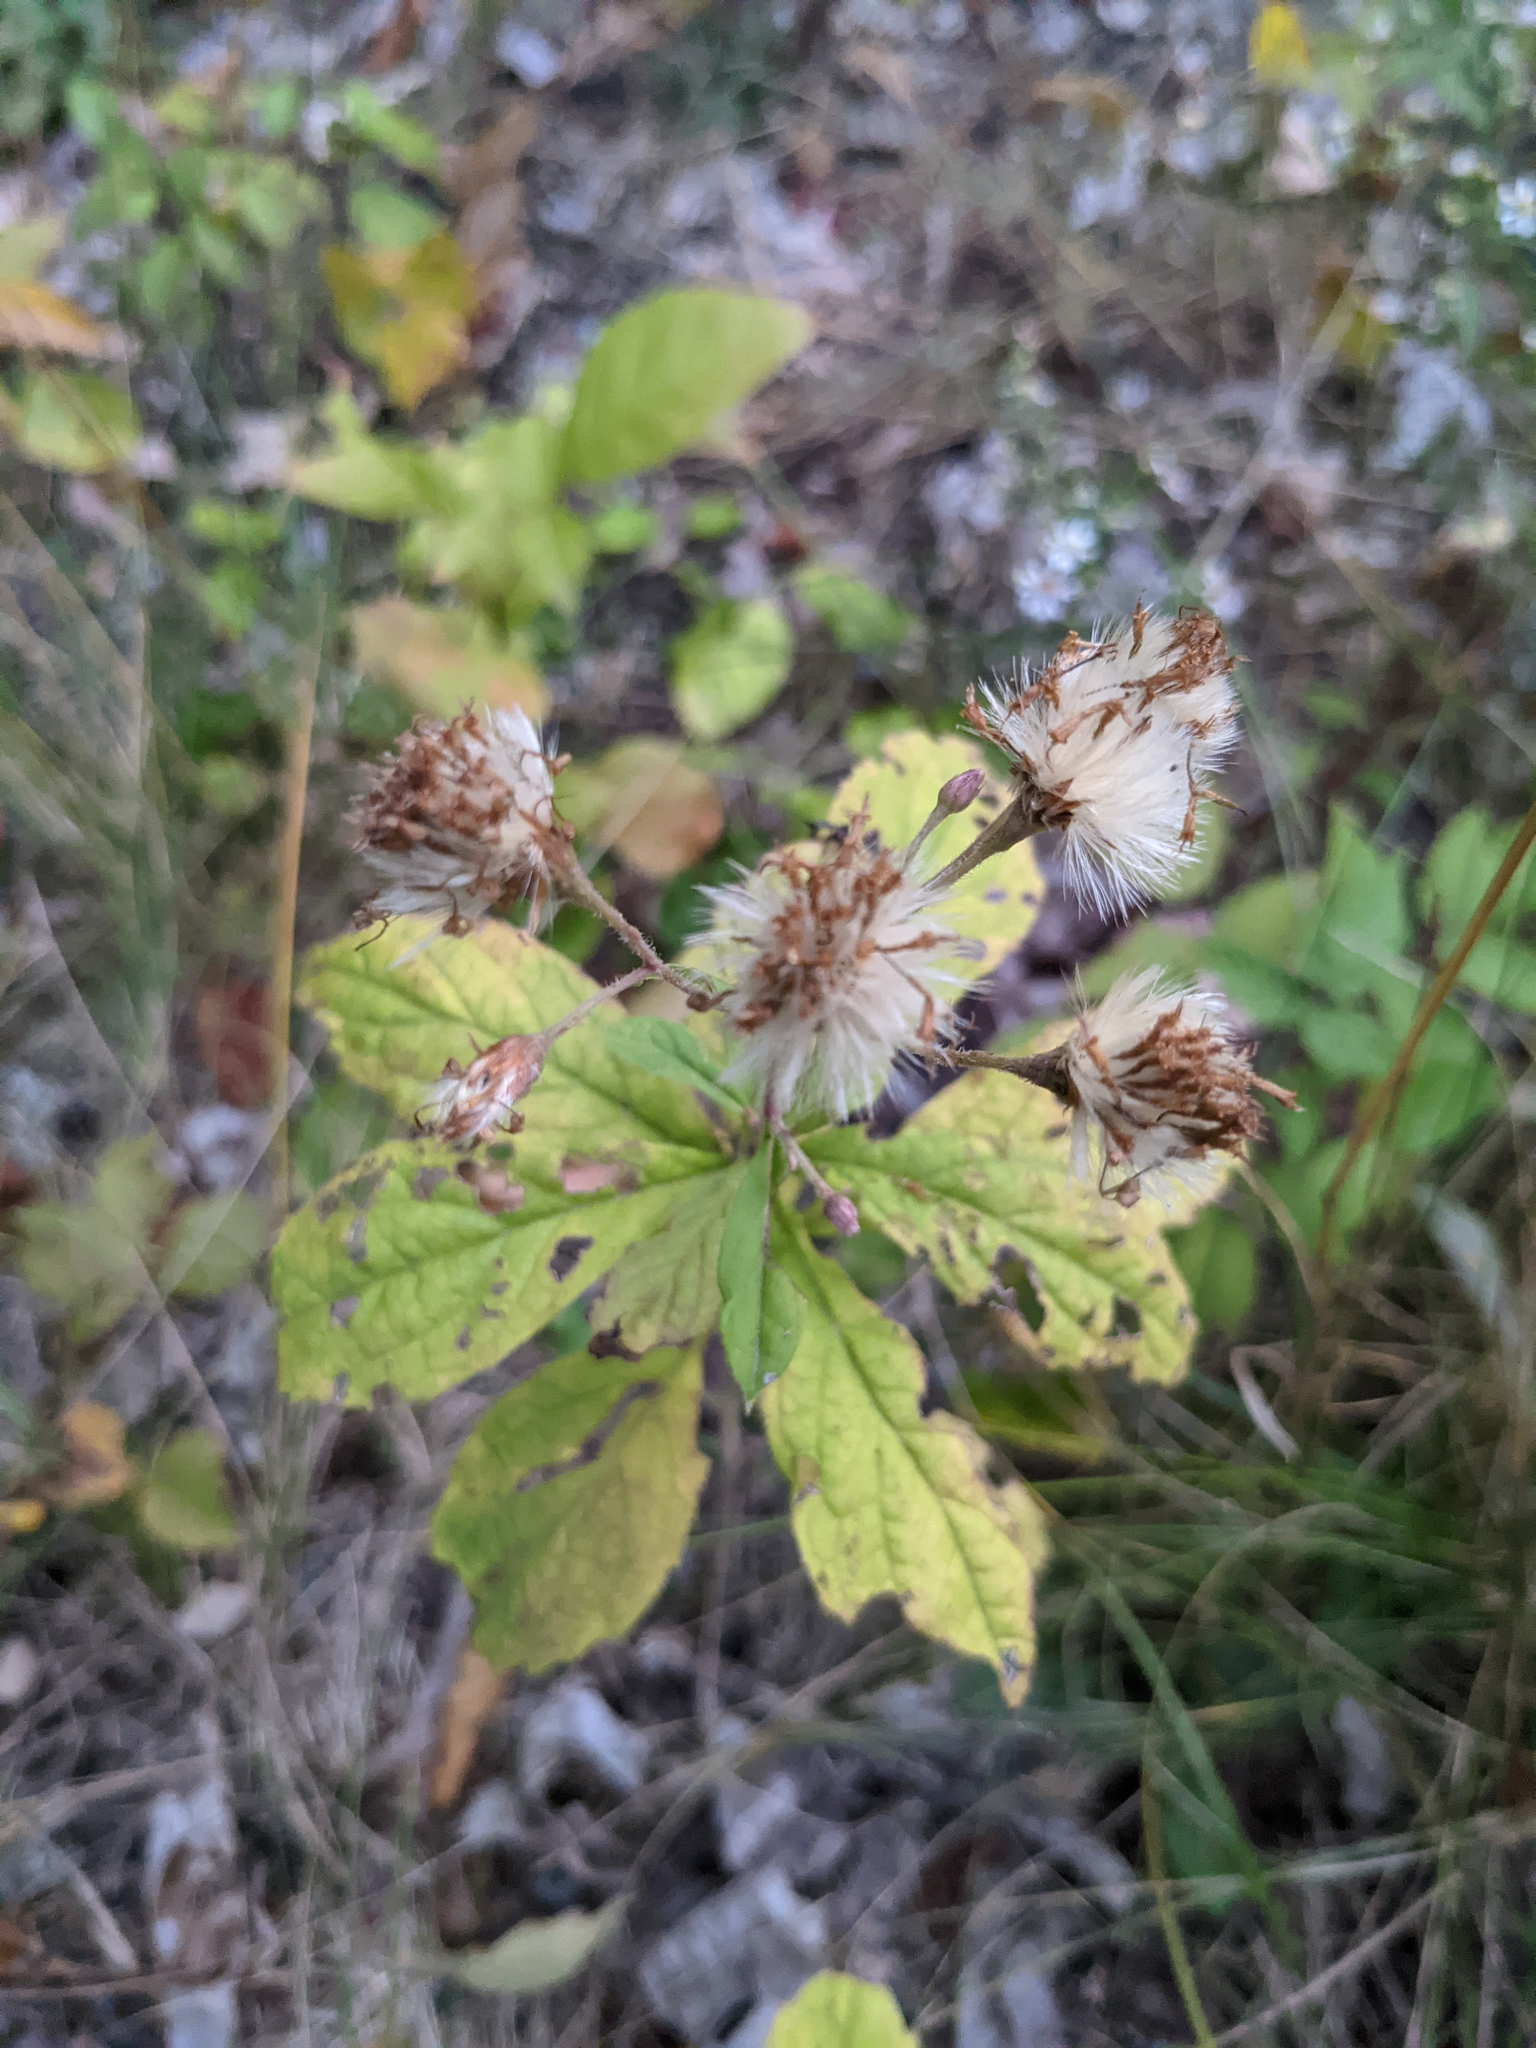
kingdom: Plantae
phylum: Tracheophyta
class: Magnoliopsida
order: Asterales
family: Asteraceae
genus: Oclemena
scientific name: Oclemena acuminata
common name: Mountain aster
